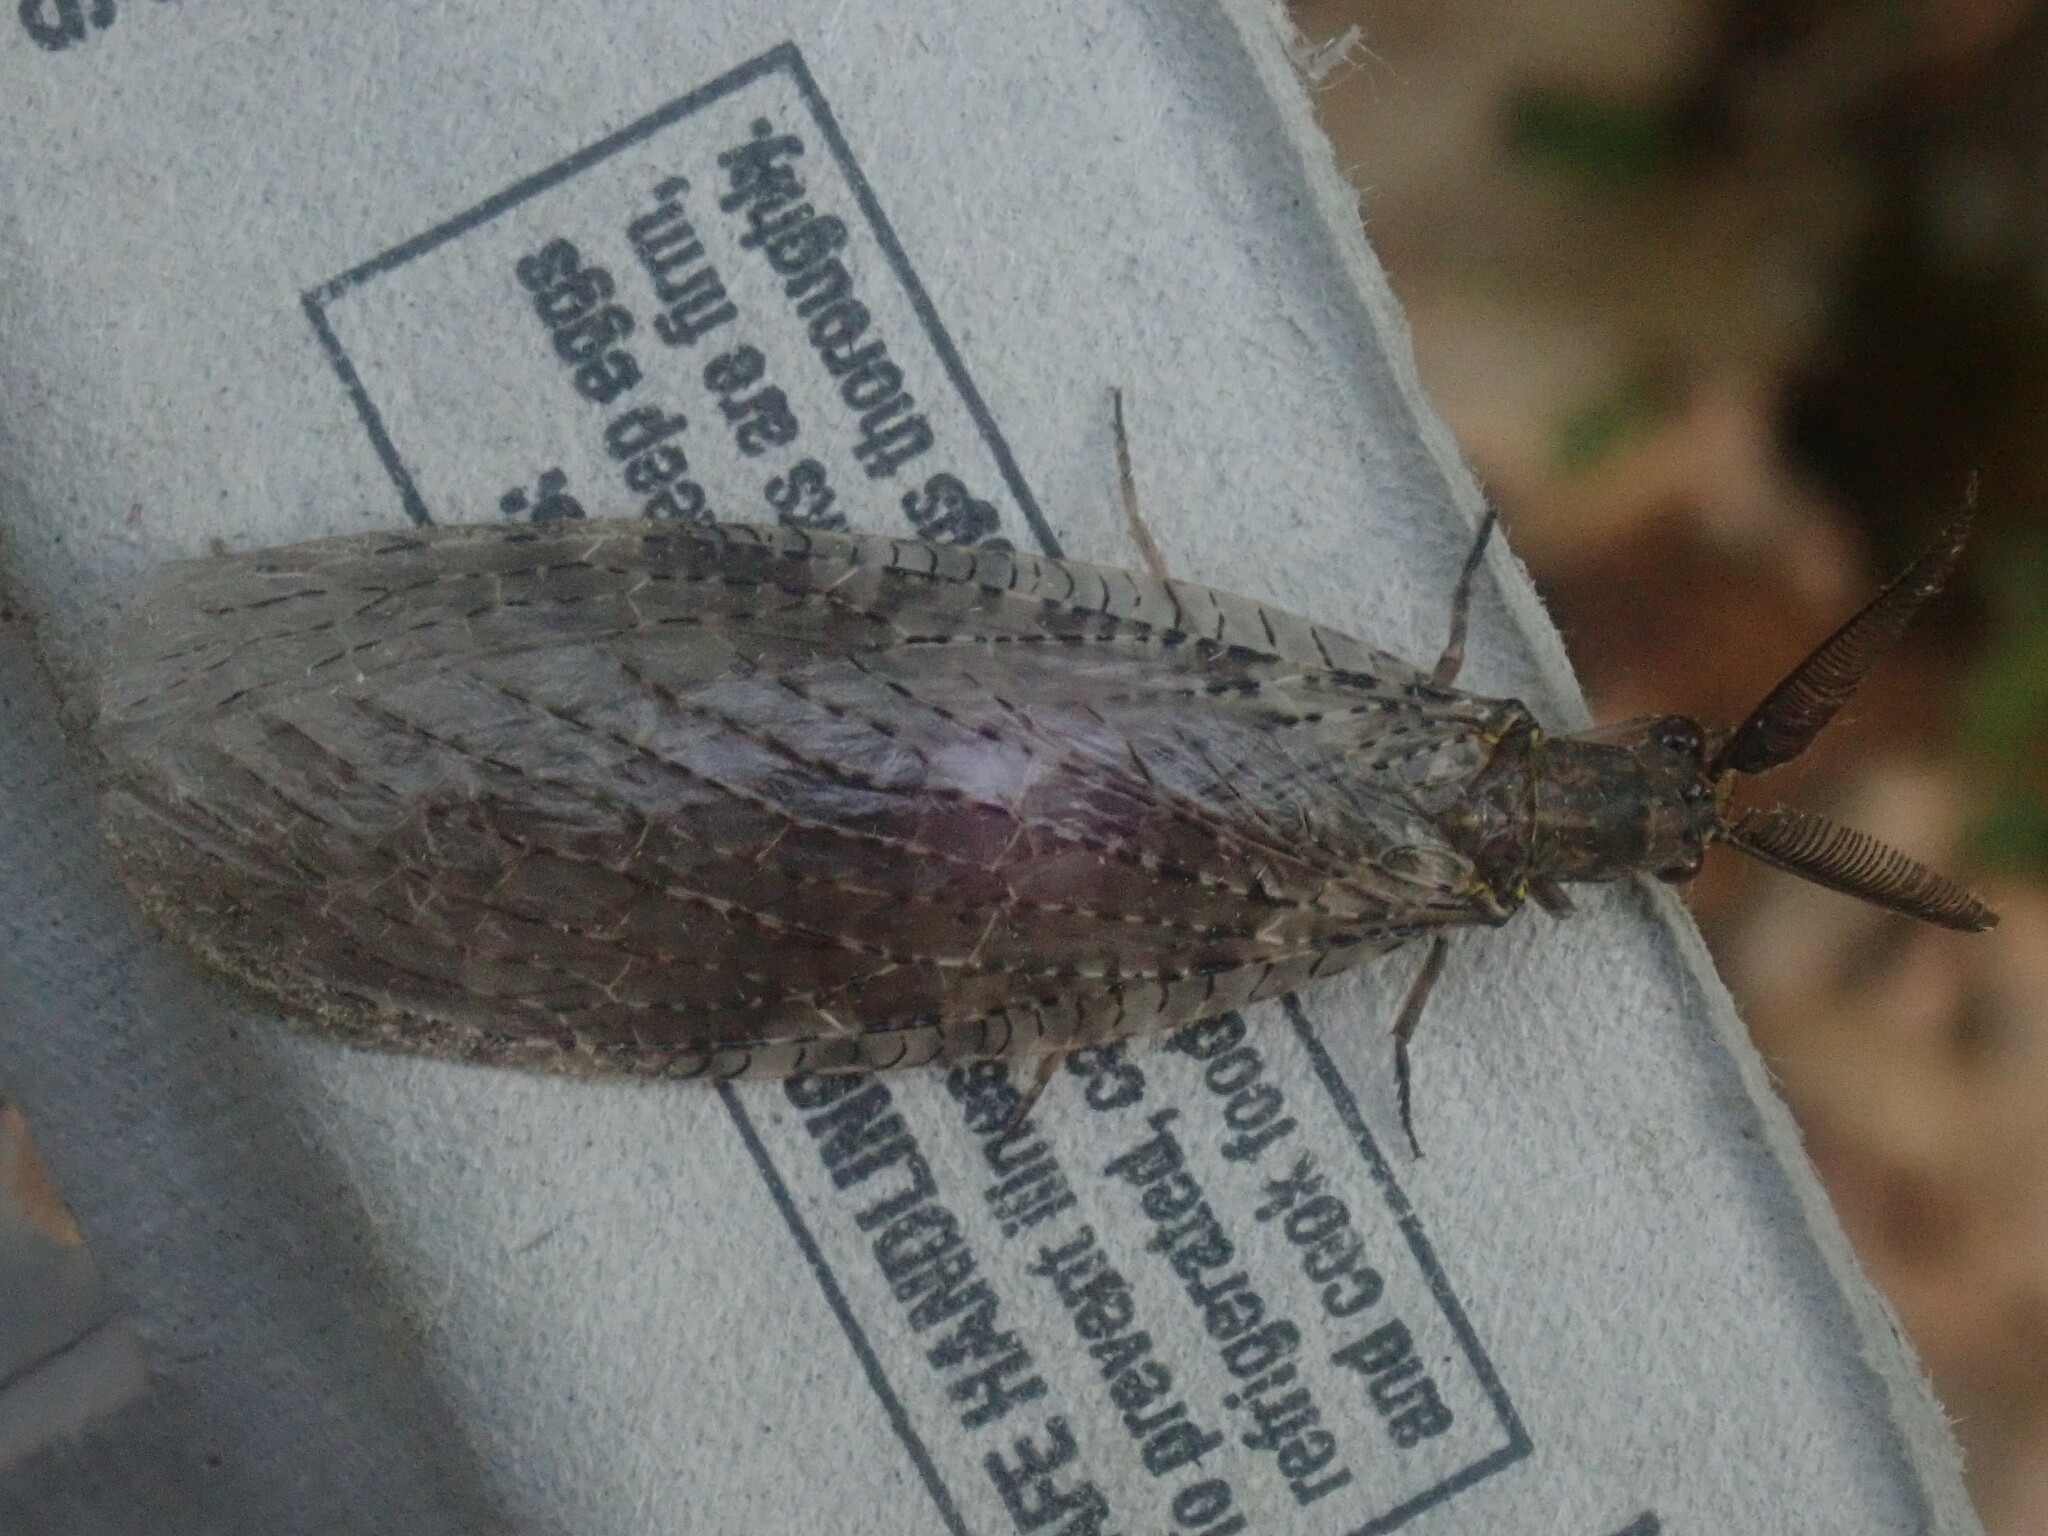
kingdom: Animalia
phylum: Arthropoda
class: Insecta
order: Megaloptera
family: Corydalidae
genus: Chauliodes
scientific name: Chauliodes pectinicornis
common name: Summer fishfly
